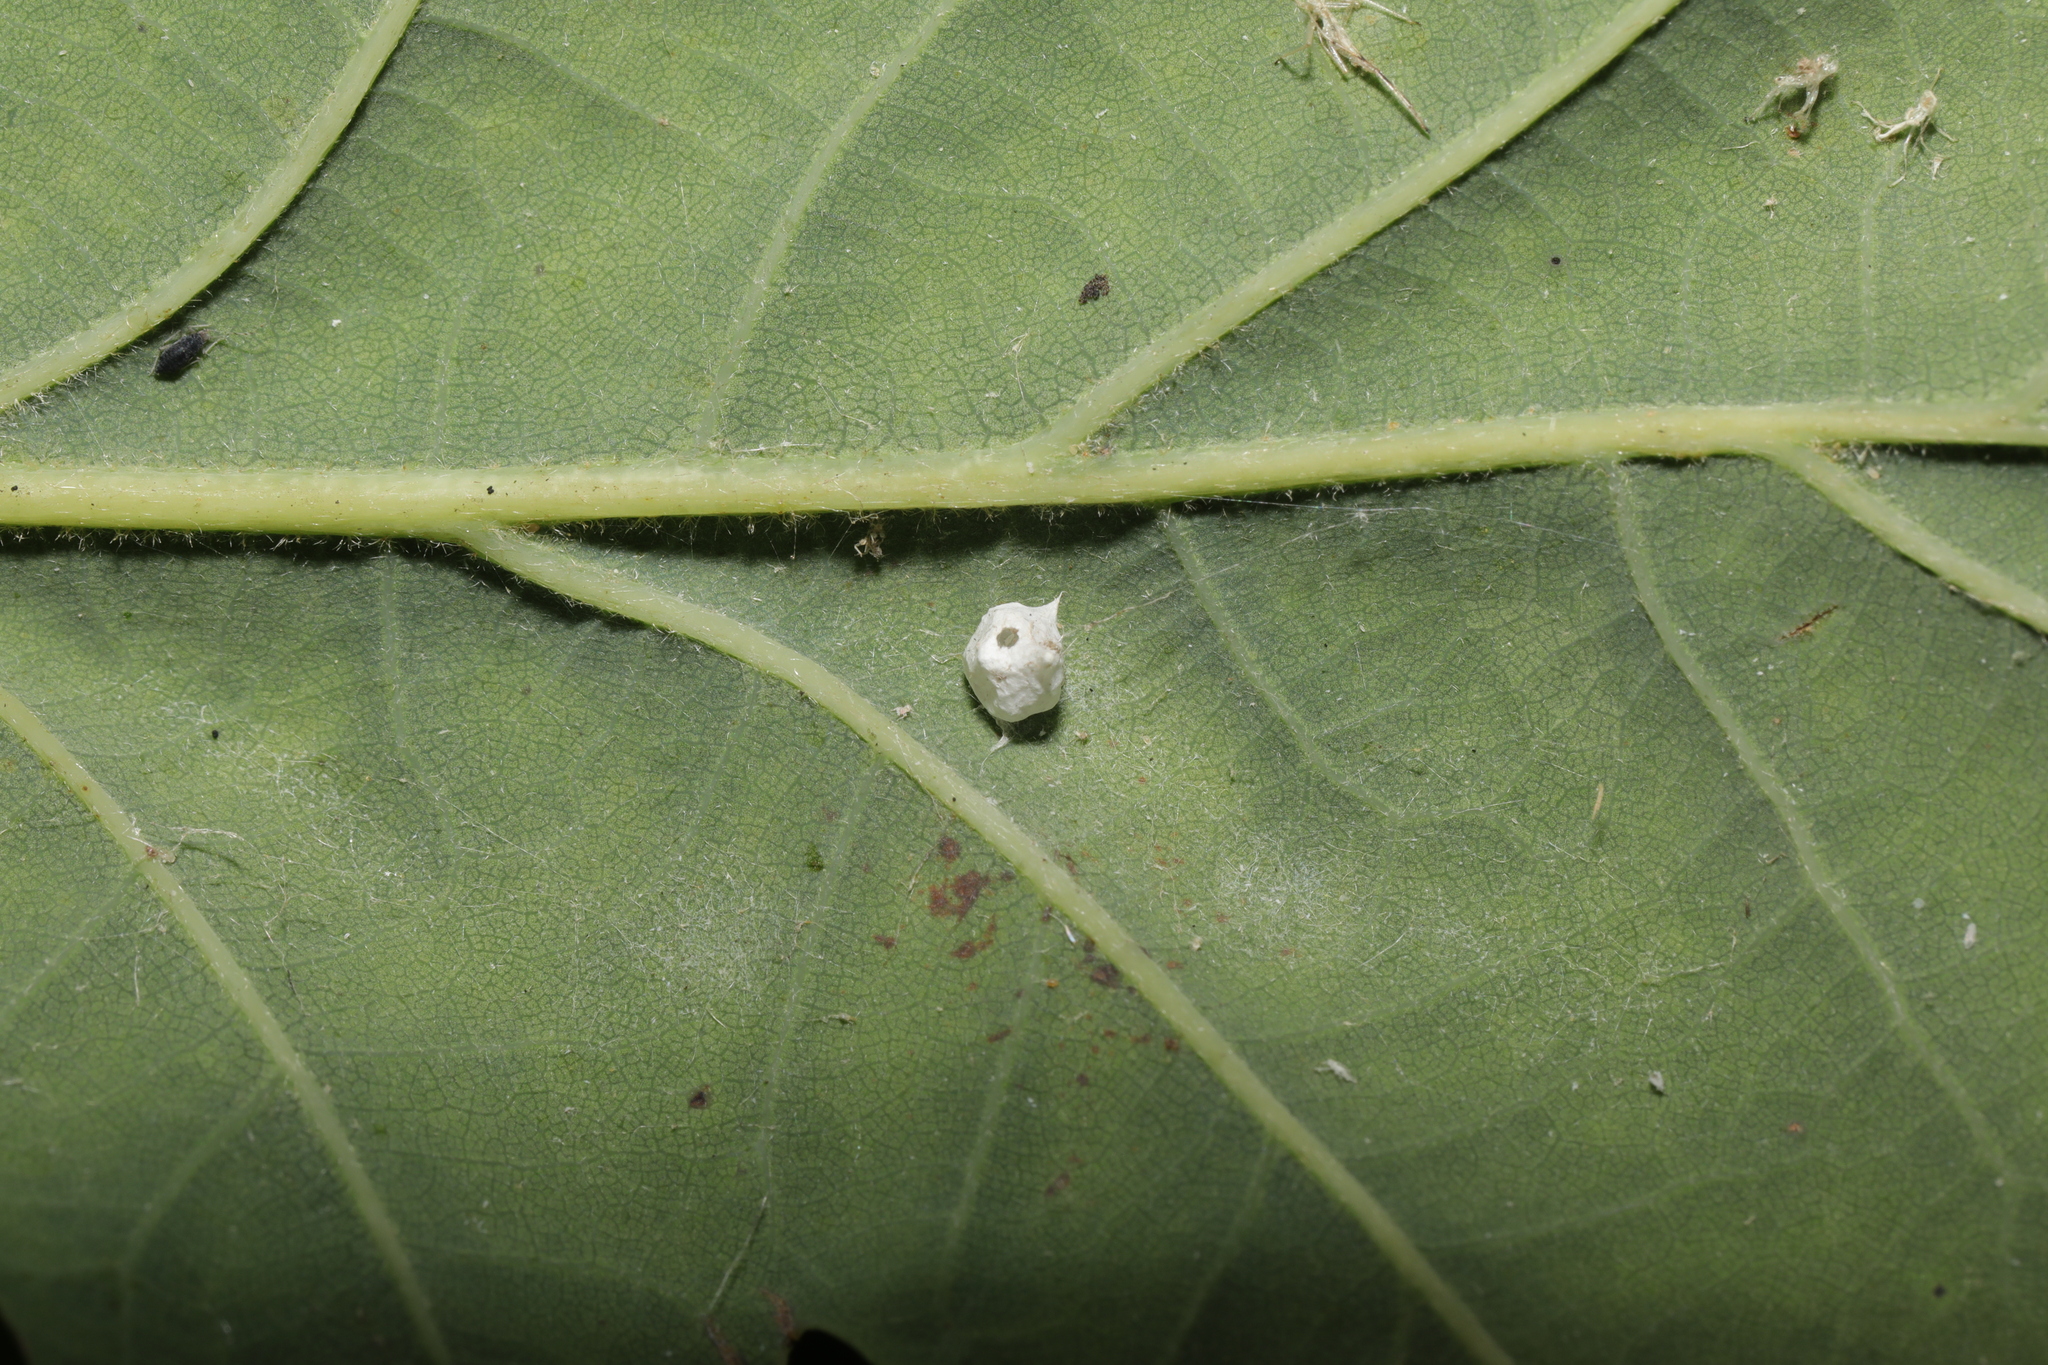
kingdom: Animalia
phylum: Arthropoda
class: Arachnida
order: Araneae
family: Theridiidae
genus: Paidiscura
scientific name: Paidiscura pallens
